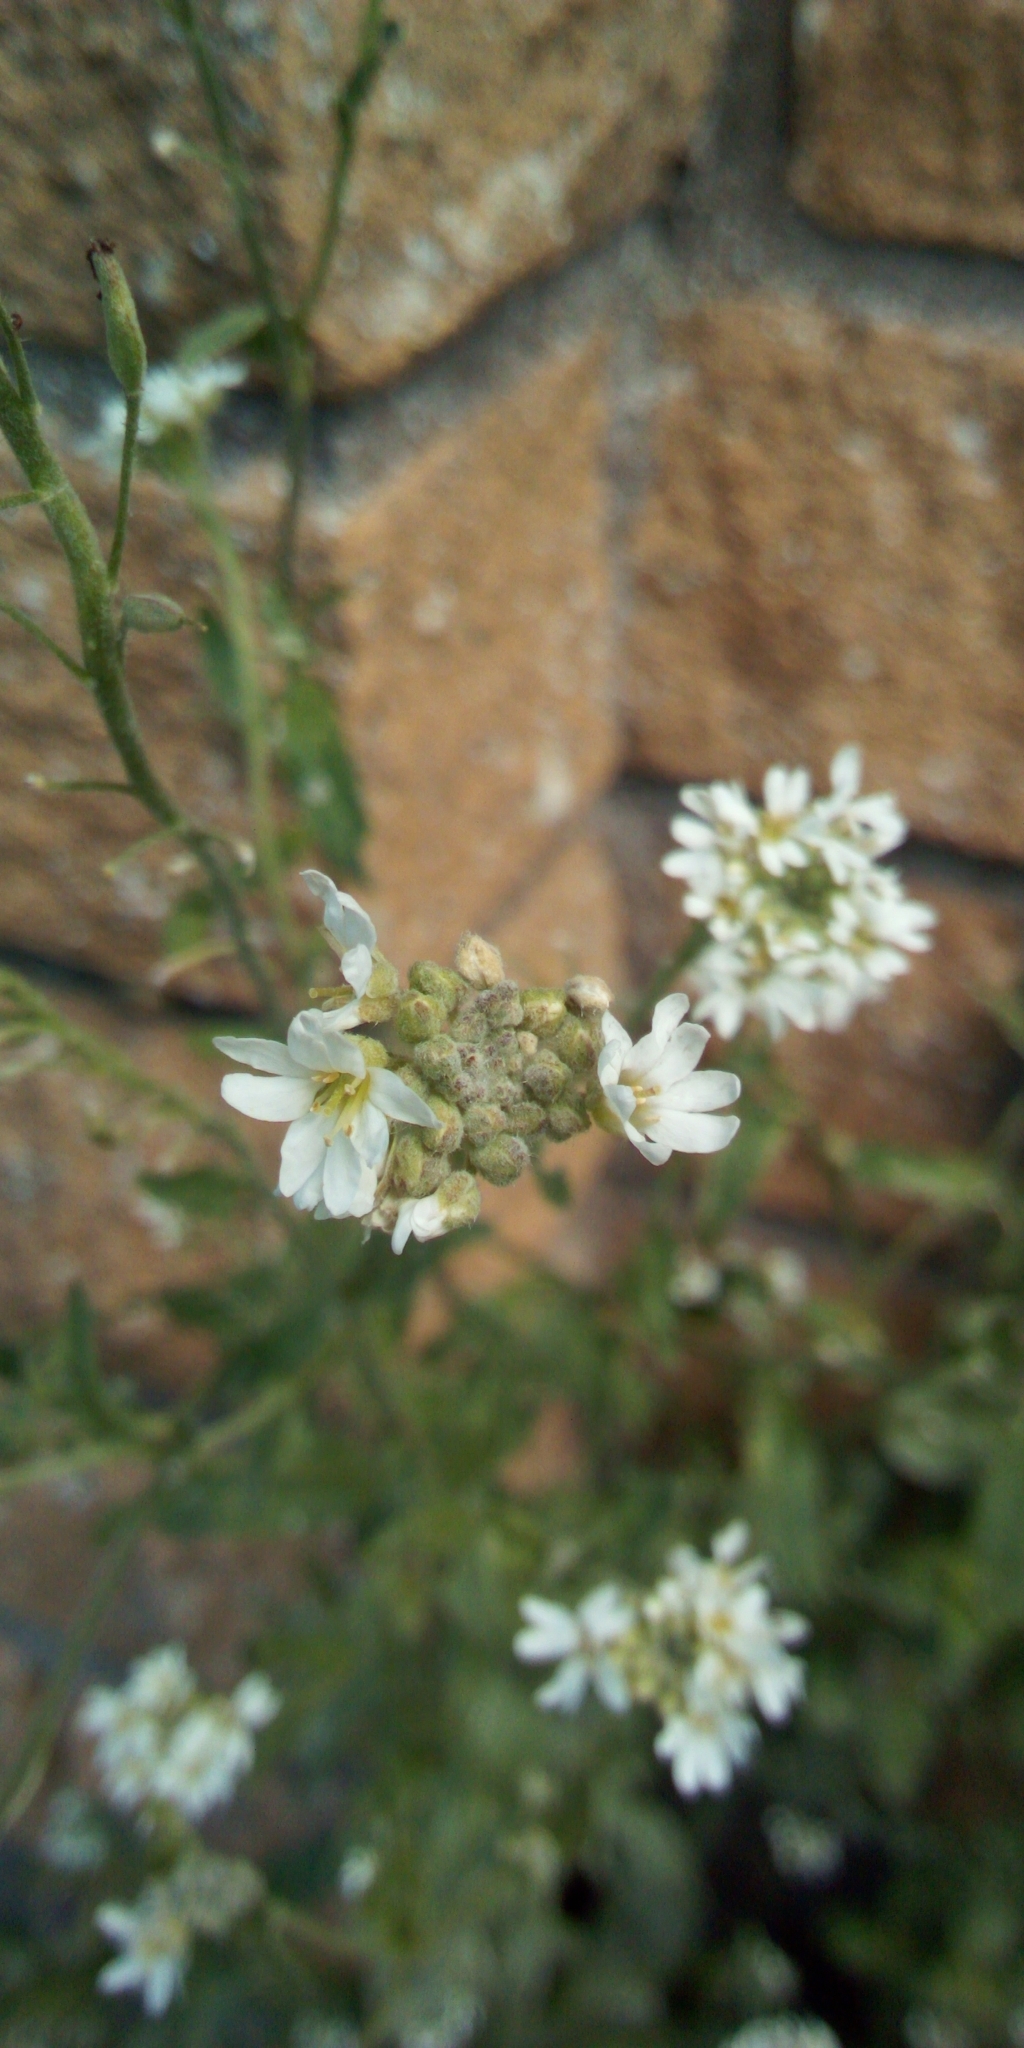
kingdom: Plantae
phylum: Tracheophyta
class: Magnoliopsida
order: Brassicales
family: Brassicaceae
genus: Berteroa
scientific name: Berteroa incana
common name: Hoary alison
